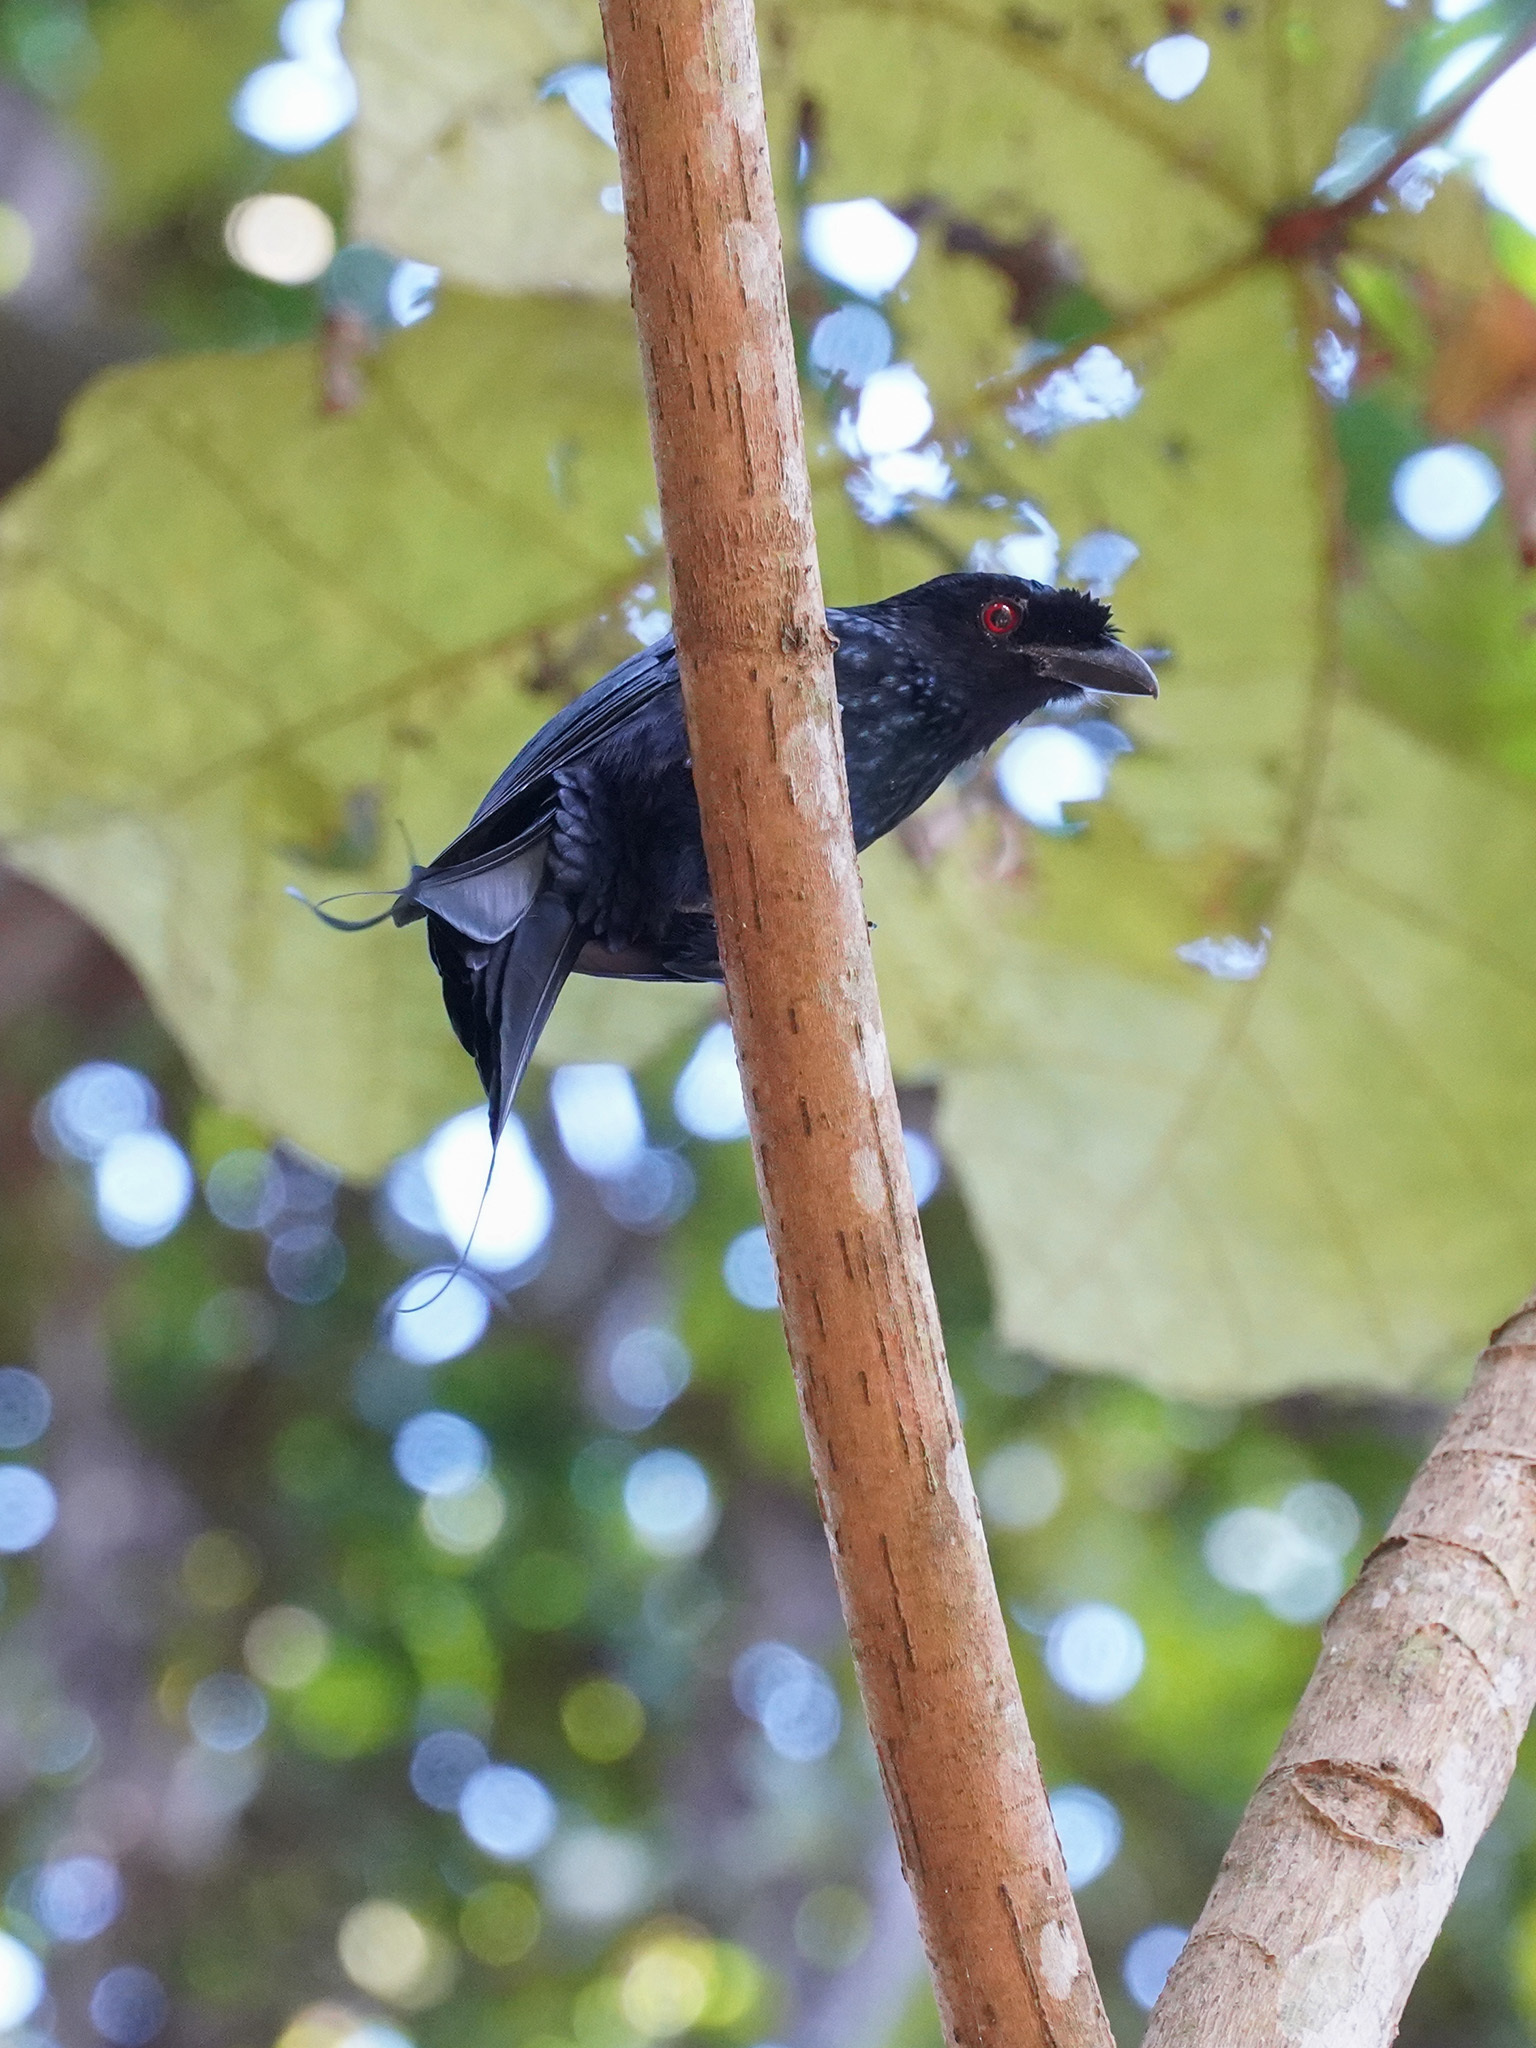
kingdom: Animalia
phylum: Chordata
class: Aves
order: Passeriformes
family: Dicruridae
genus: Dicrurus
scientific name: Dicrurus paradiseus
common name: Greater racket-tailed drongo
